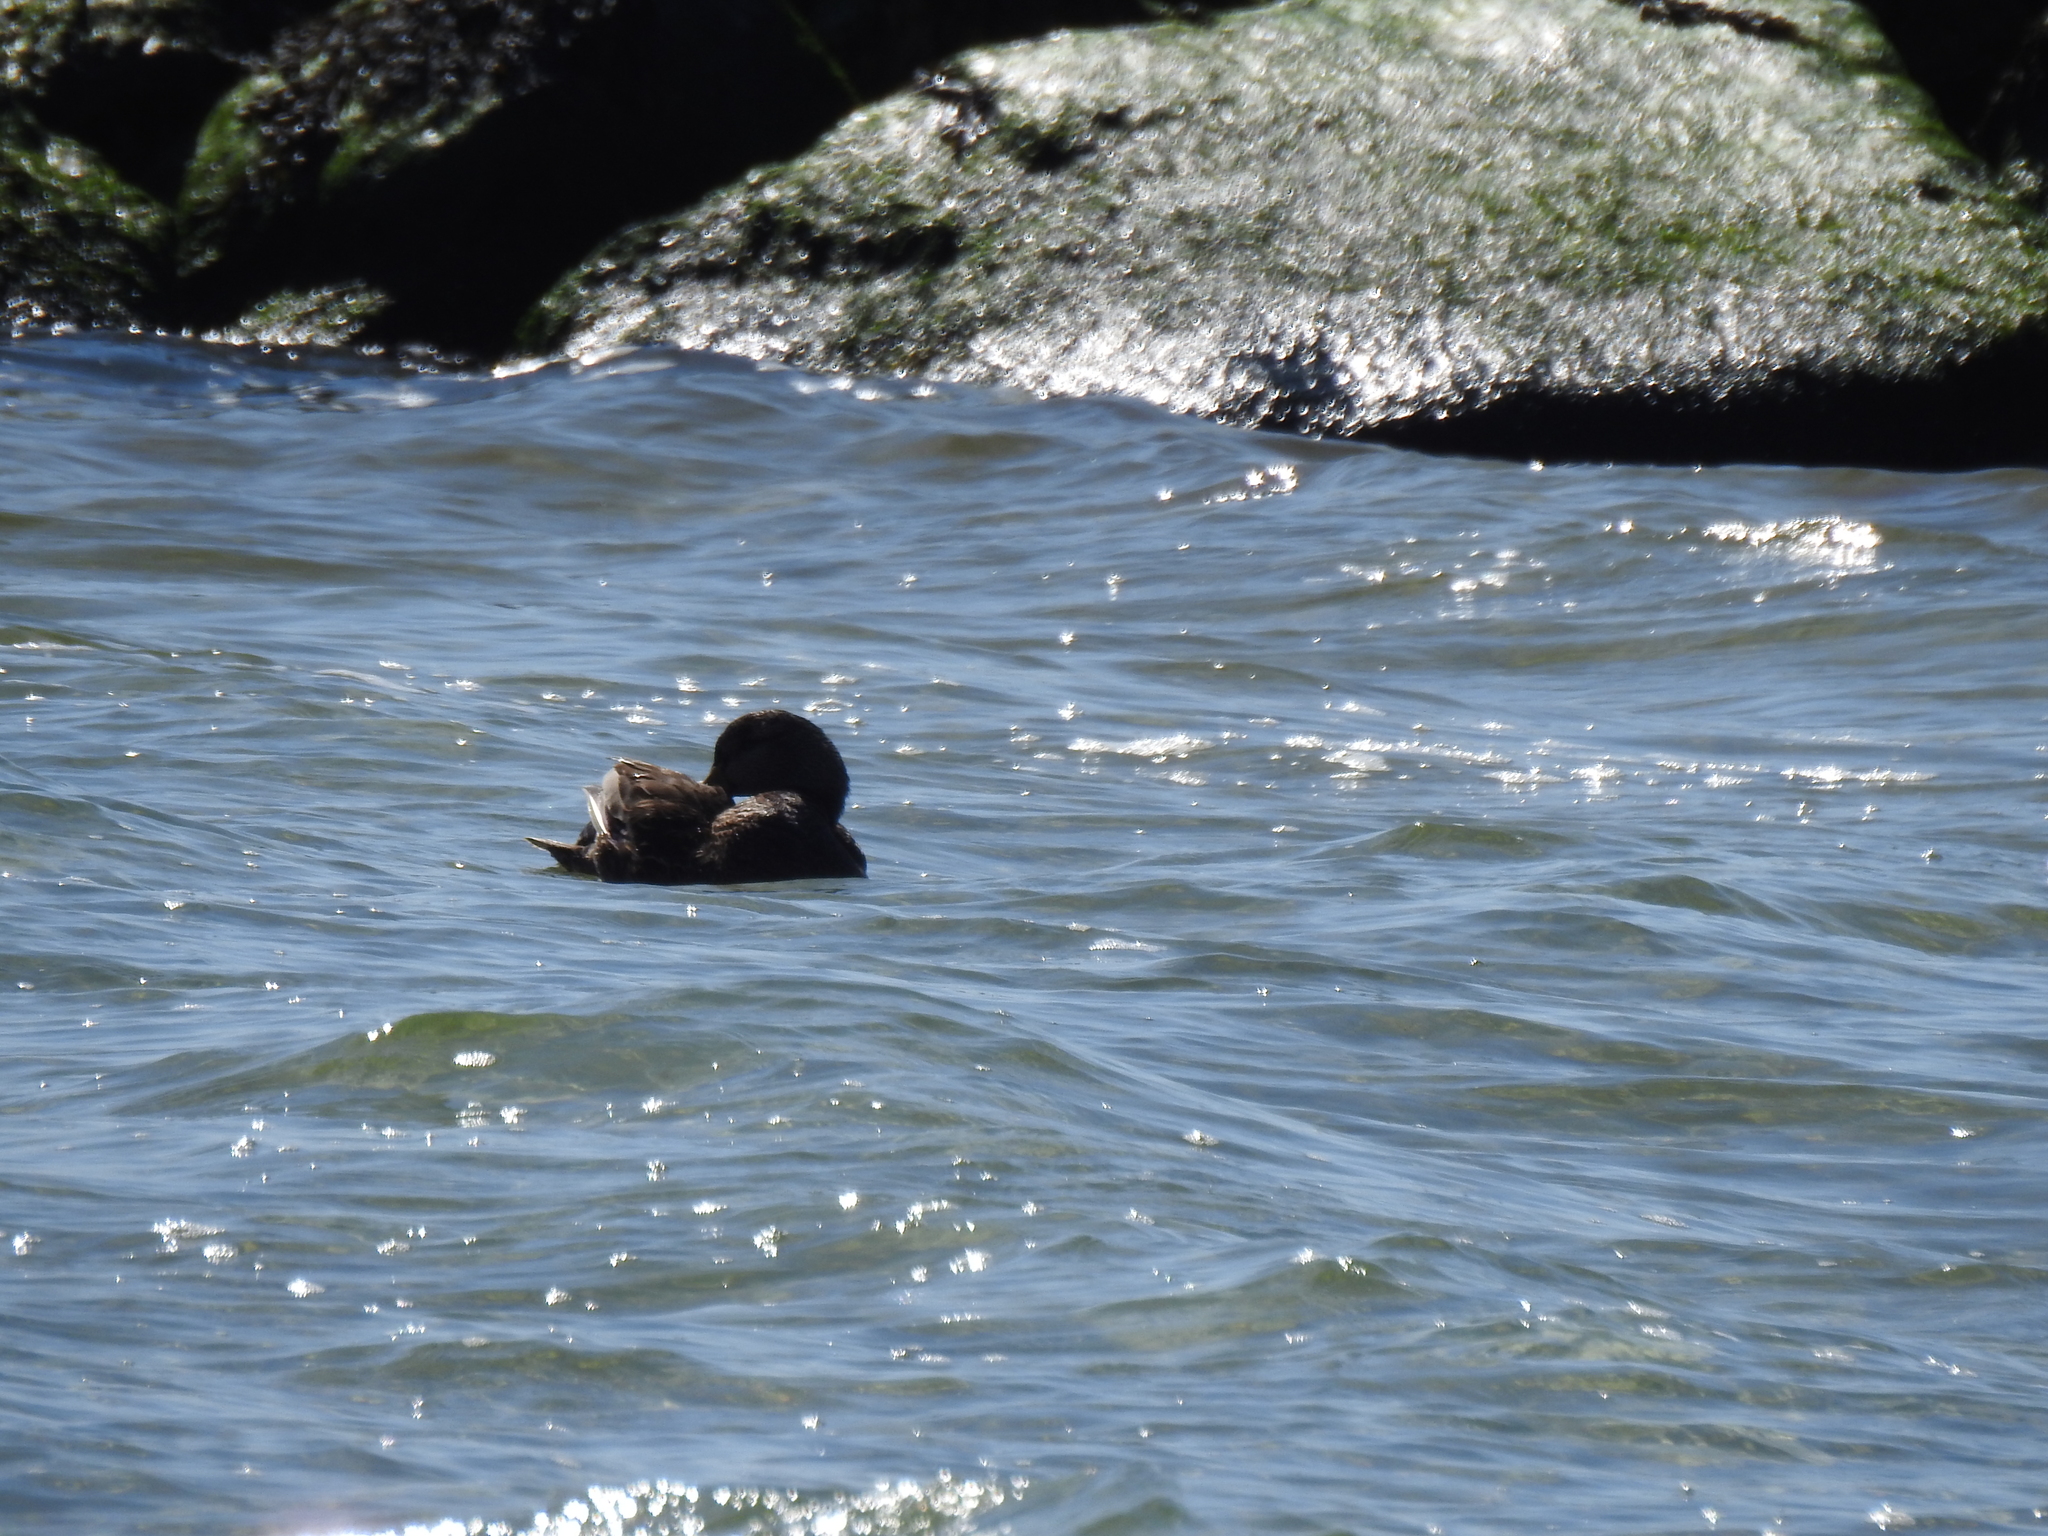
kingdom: Animalia
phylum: Chordata
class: Aves
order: Anseriformes
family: Anatidae
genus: Anas
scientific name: Anas rubripes
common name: American black duck
